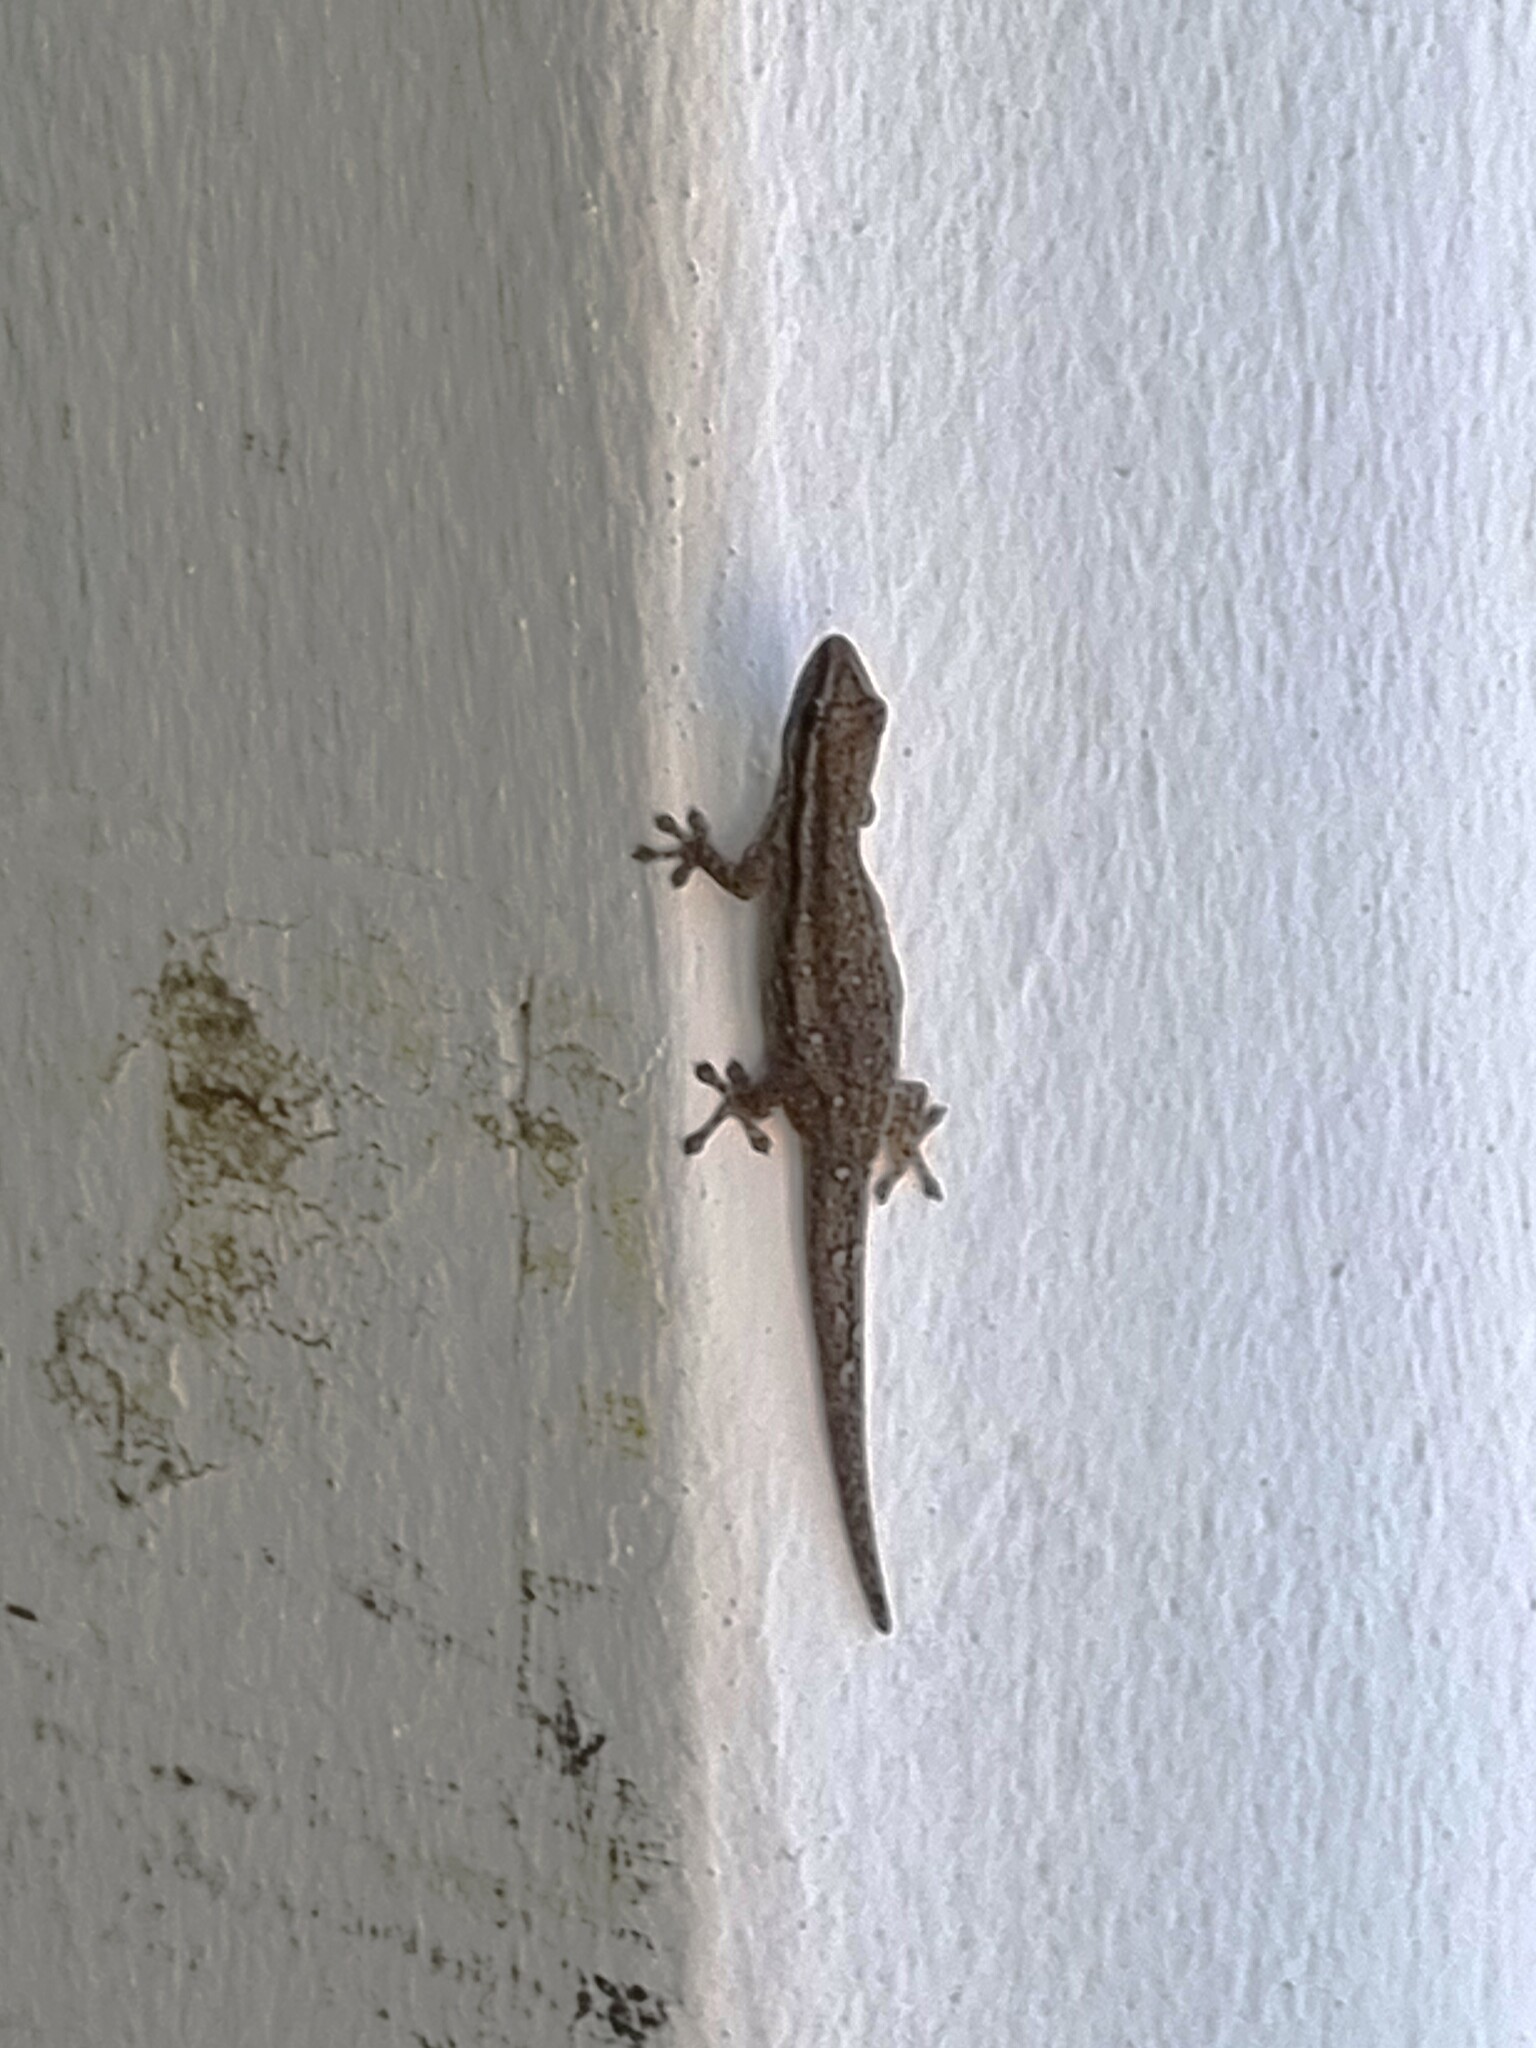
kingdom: Animalia
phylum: Chordata
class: Squamata
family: Gekkonidae
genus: Lygodactylus
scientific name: Lygodactylus capensis
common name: Cape dwarf gecko
